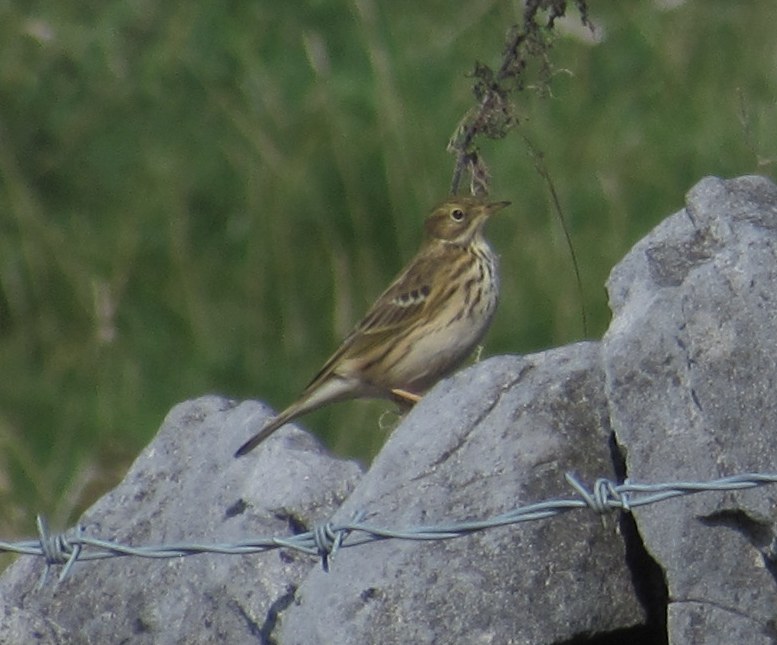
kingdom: Animalia
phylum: Chordata
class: Aves
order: Passeriformes
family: Motacillidae
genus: Anthus
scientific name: Anthus pratensis
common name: Meadow pipit
